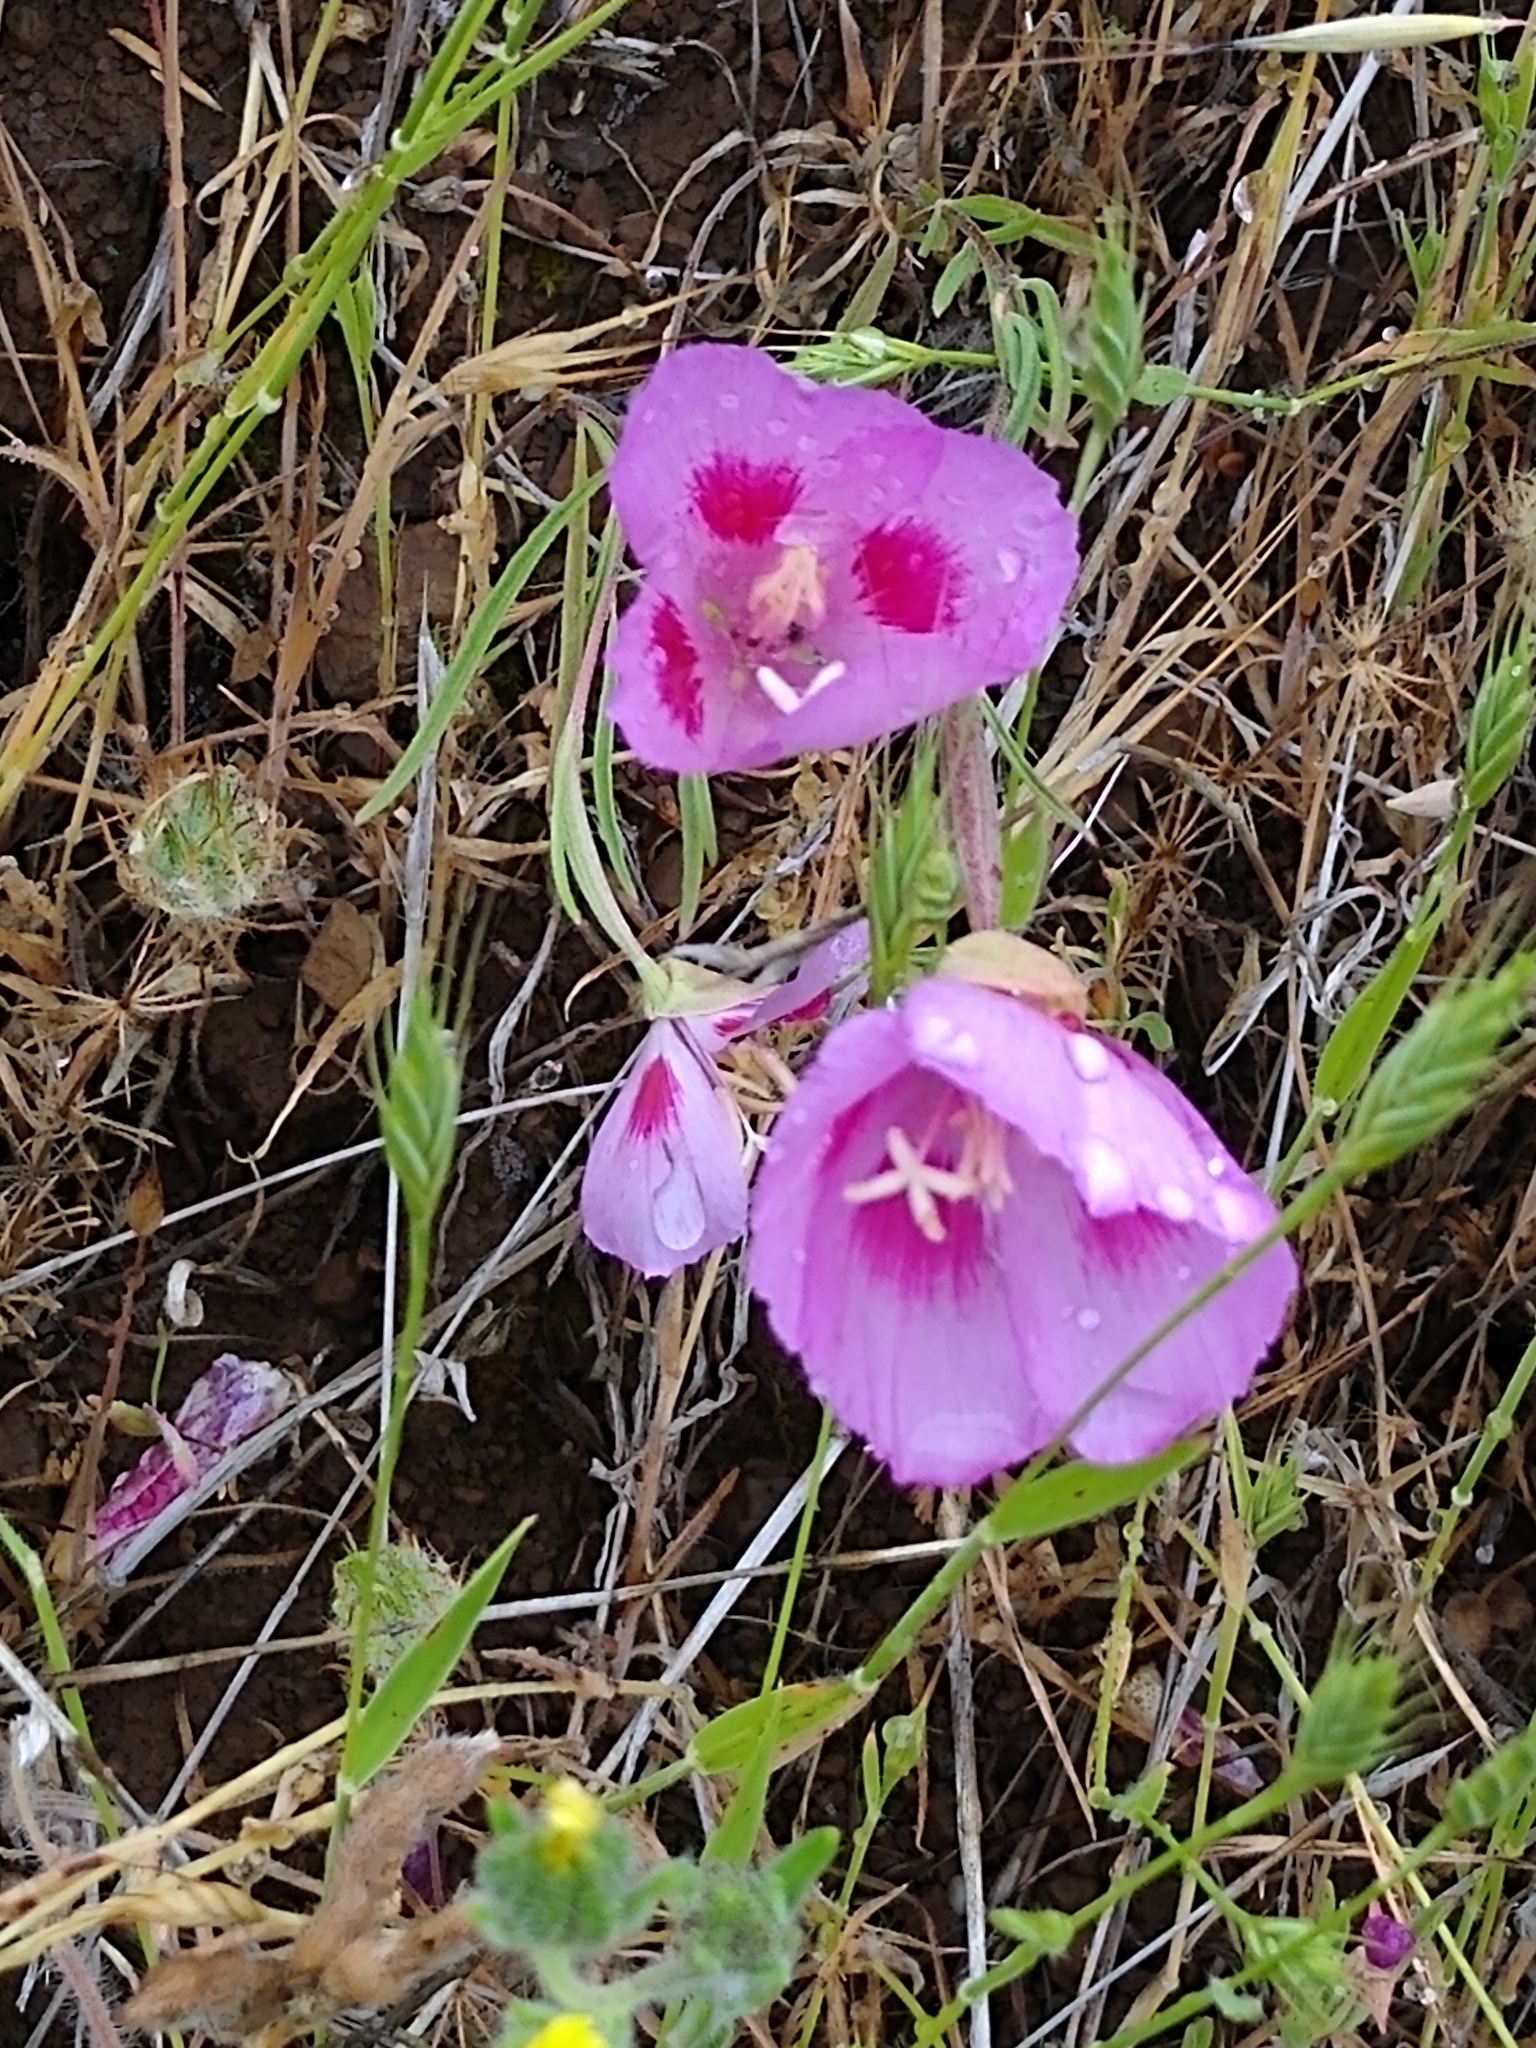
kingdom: Plantae
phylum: Tracheophyta
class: Magnoliopsida
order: Myrtales
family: Onagraceae
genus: Clarkia
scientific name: Clarkia amoena
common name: Godetia
